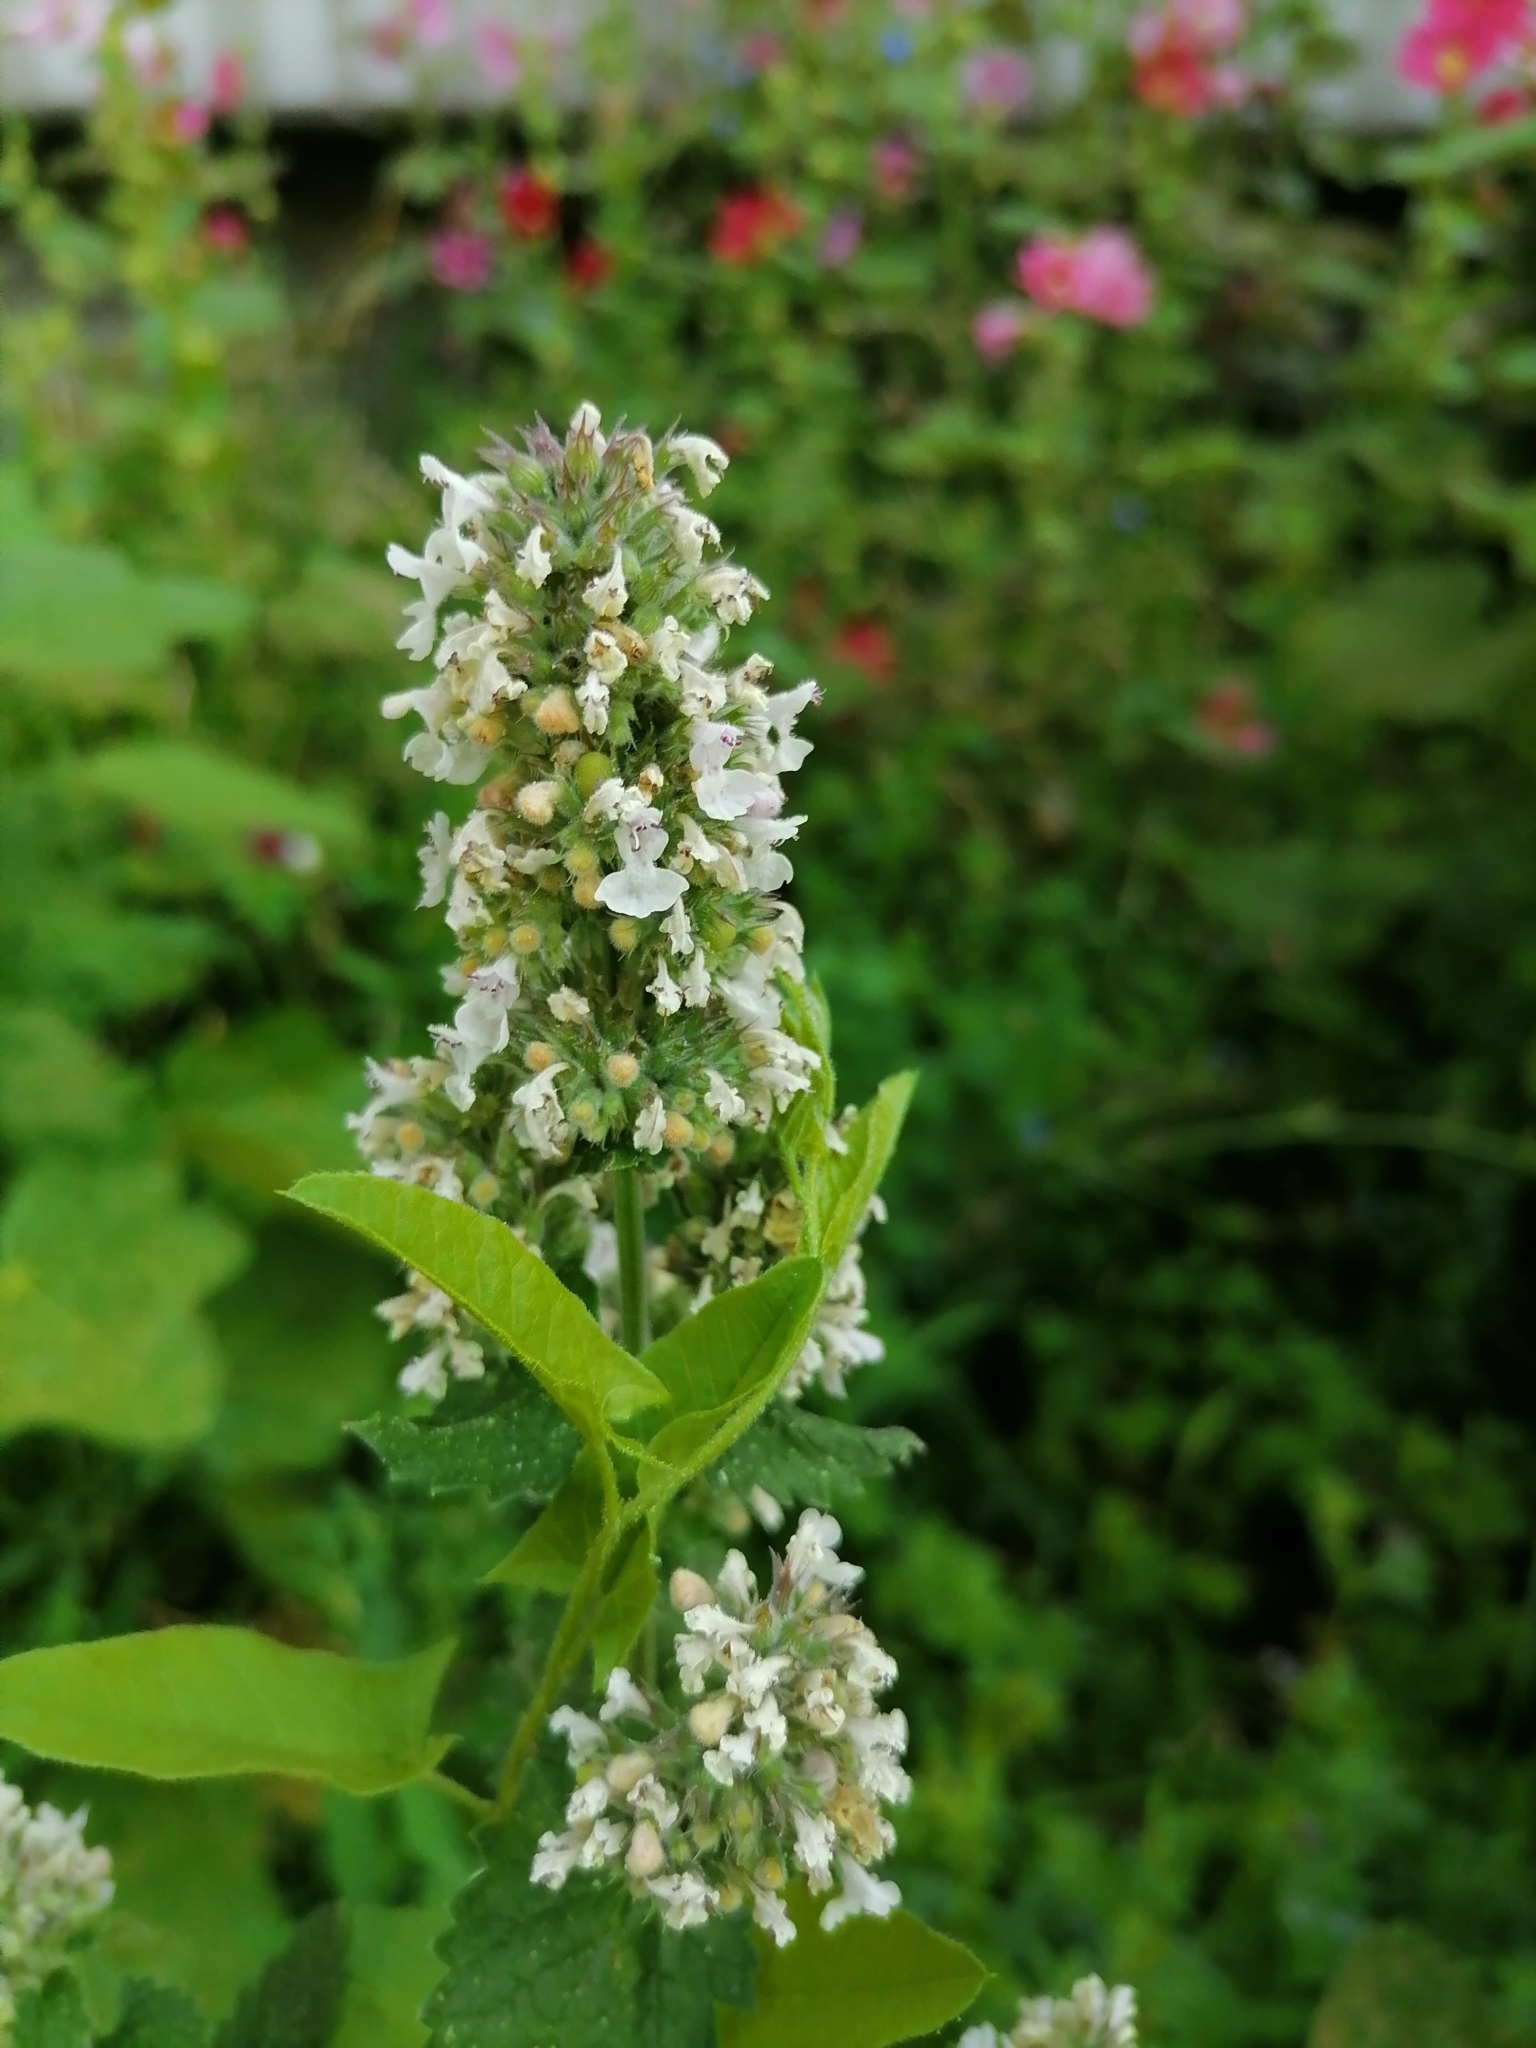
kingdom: Plantae
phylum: Tracheophyta
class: Magnoliopsida
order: Lamiales
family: Lamiaceae
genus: Nepeta
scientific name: Nepeta cataria
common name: Catnip
